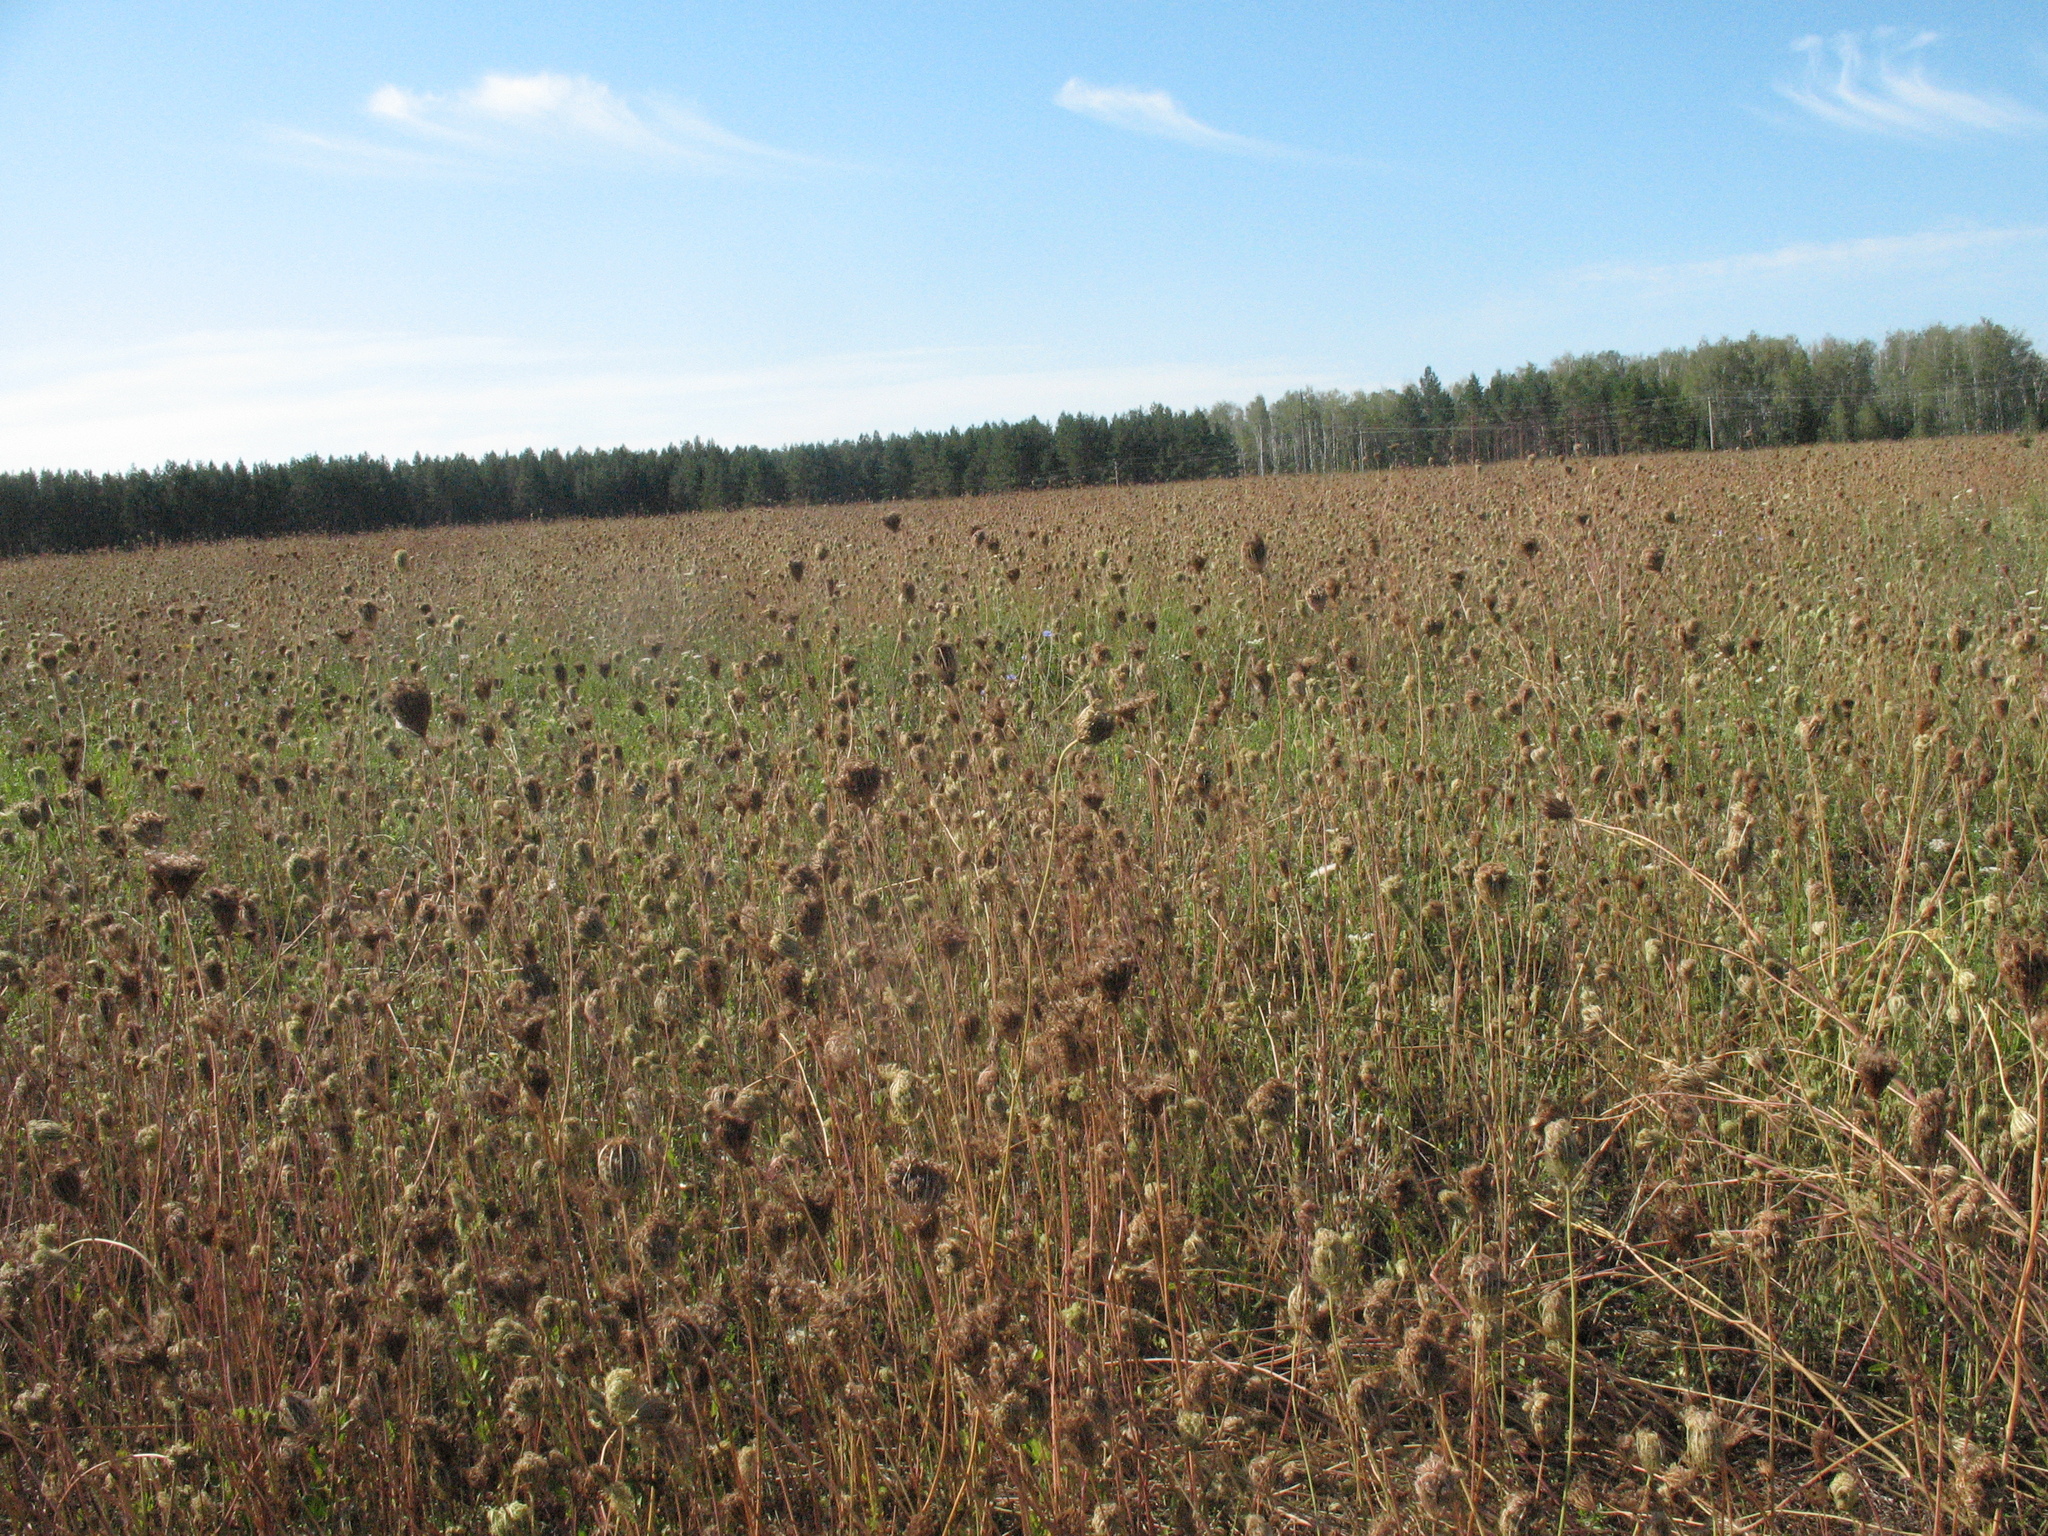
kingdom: Plantae
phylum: Tracheophyta
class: Magnoliopsida
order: Apiales
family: Apiaceae
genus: Daucus
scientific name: Daucus carota
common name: Wild carrot
